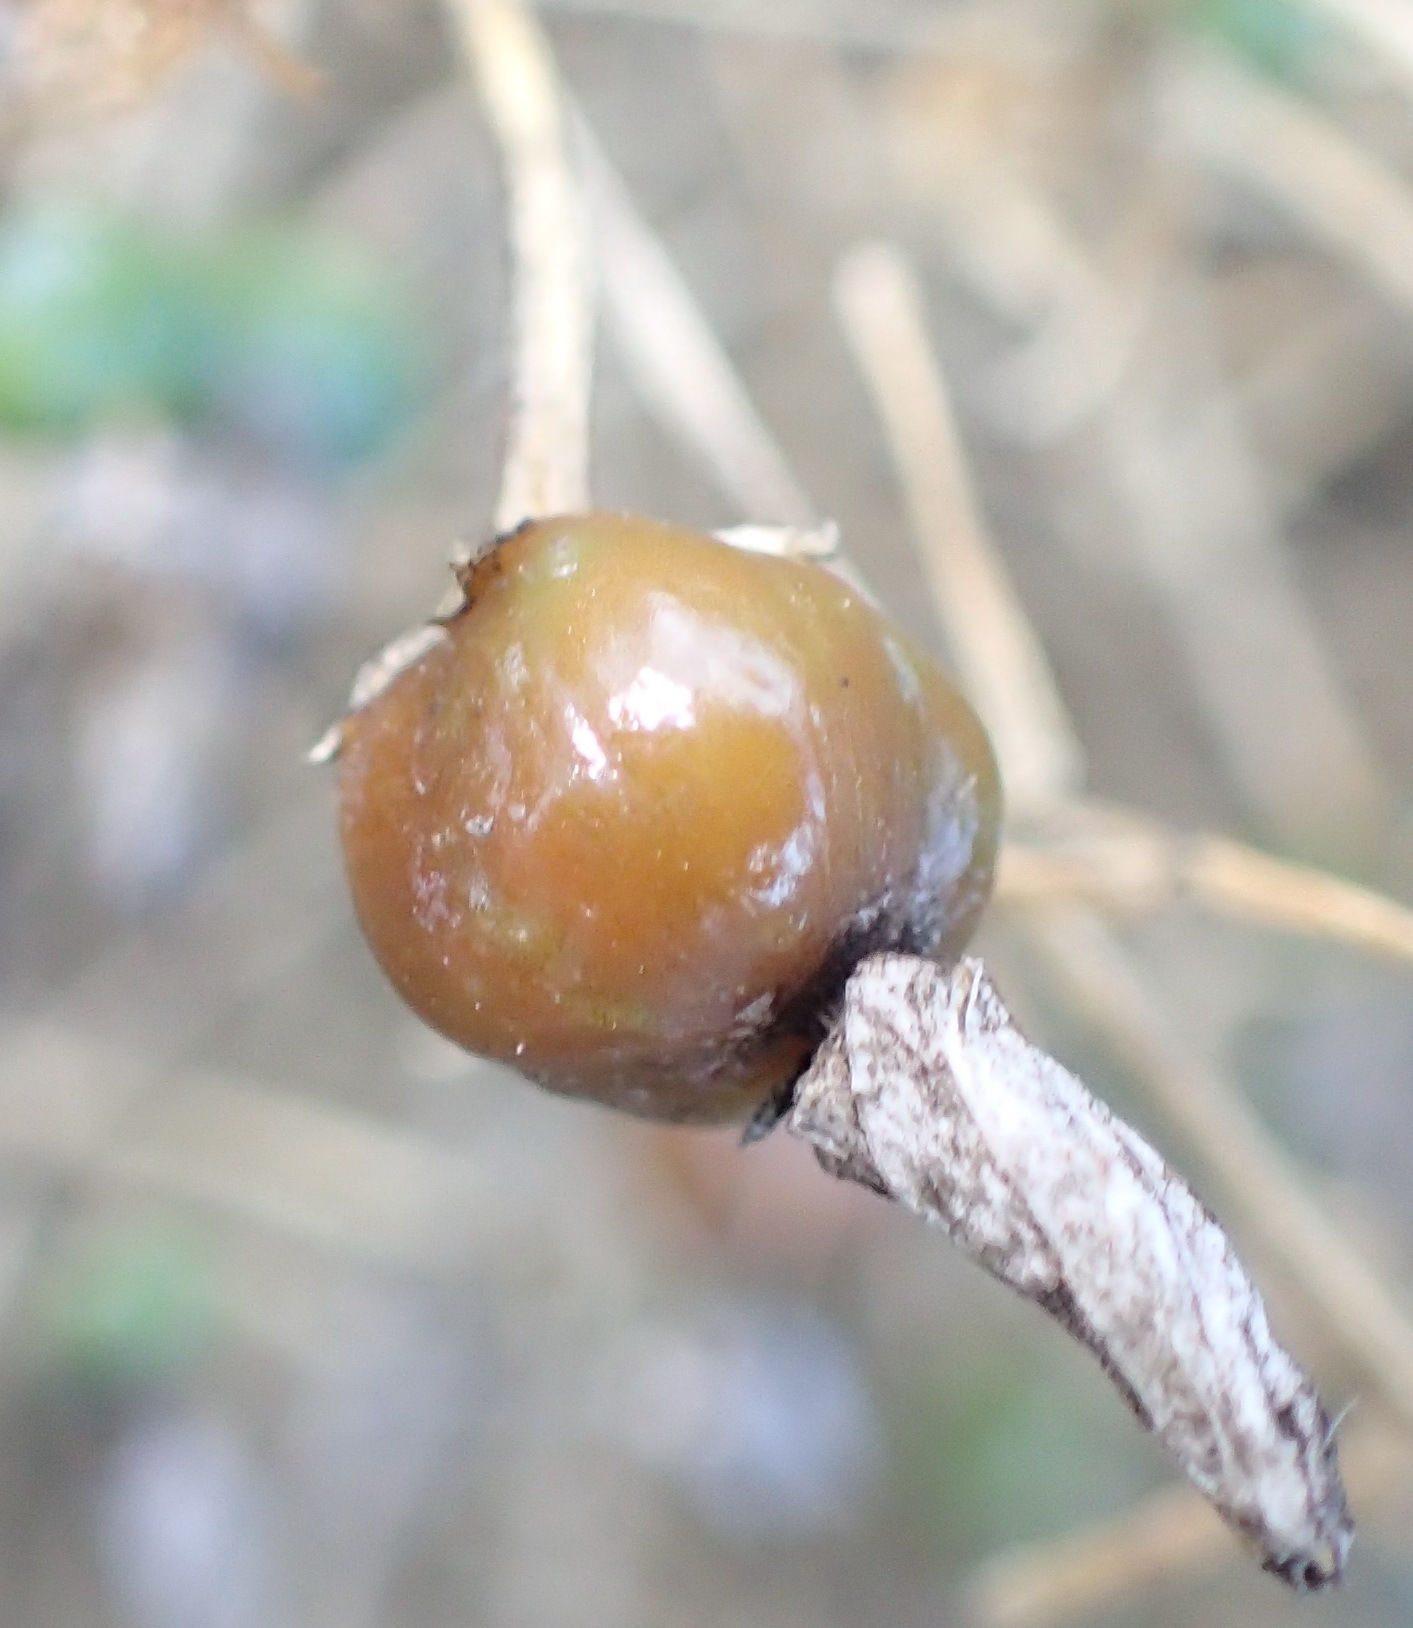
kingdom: Plantae
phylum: Tracheophyta
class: Magnoliopsida
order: Gentianales
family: Gentianaceae
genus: Chironia
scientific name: Chironia baccifera
